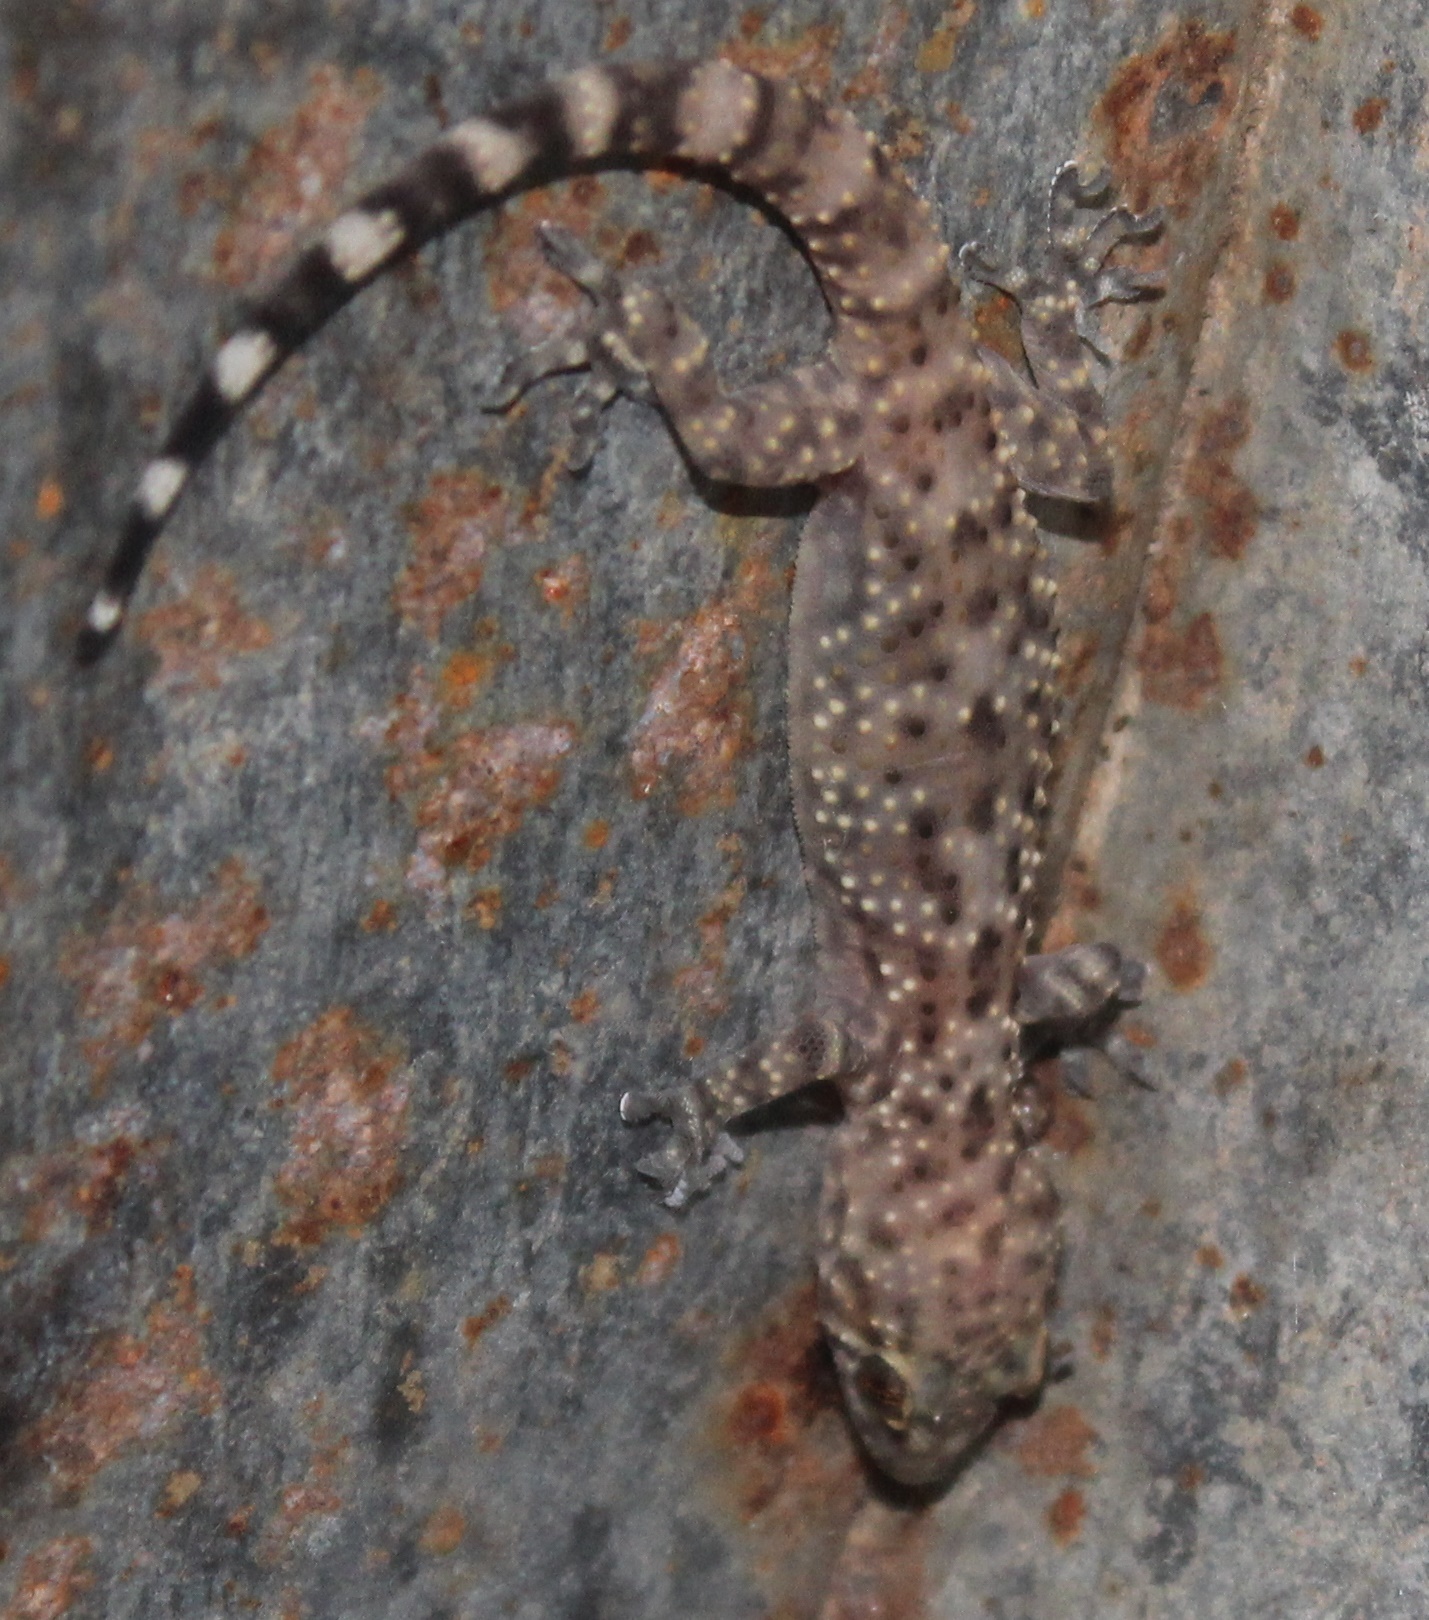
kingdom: Animalia
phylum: Chordata
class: Squamata
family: Gekkonidae
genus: Hemidactylus
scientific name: Hemidactylus turcicus
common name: Turkish gecko
